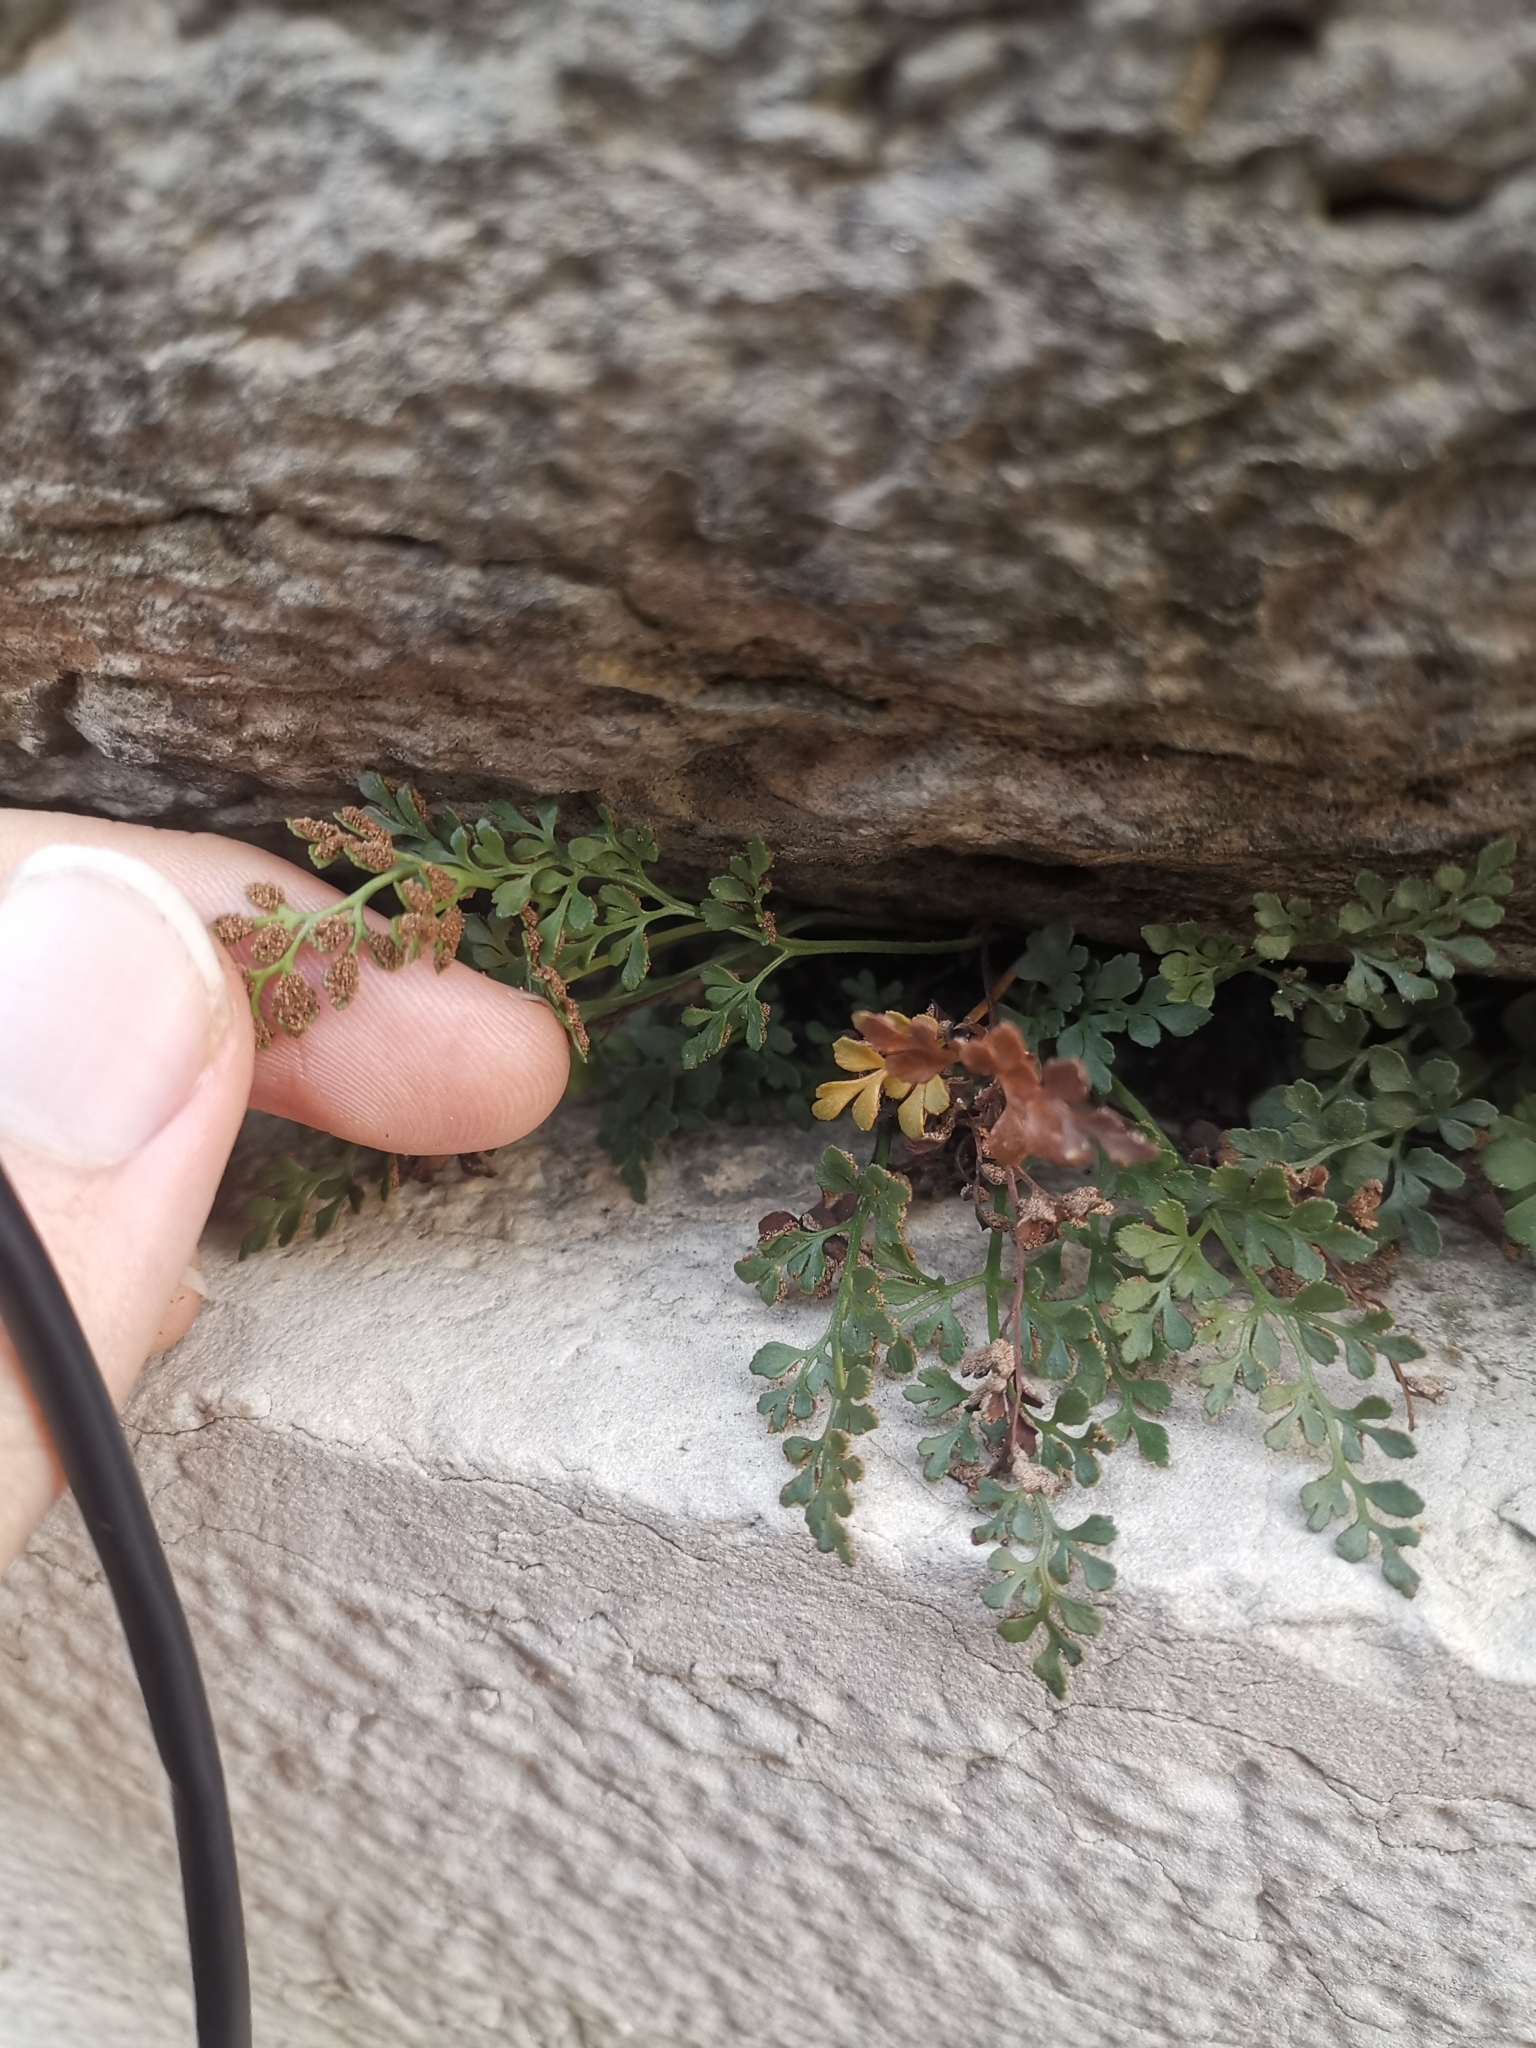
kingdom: Plantae
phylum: Tracheophyta
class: Polypodiopsida
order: Polypodiales
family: Aspleniaceae
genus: Asplenium
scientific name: Asplenium ruta-muraria
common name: Wall-rue
